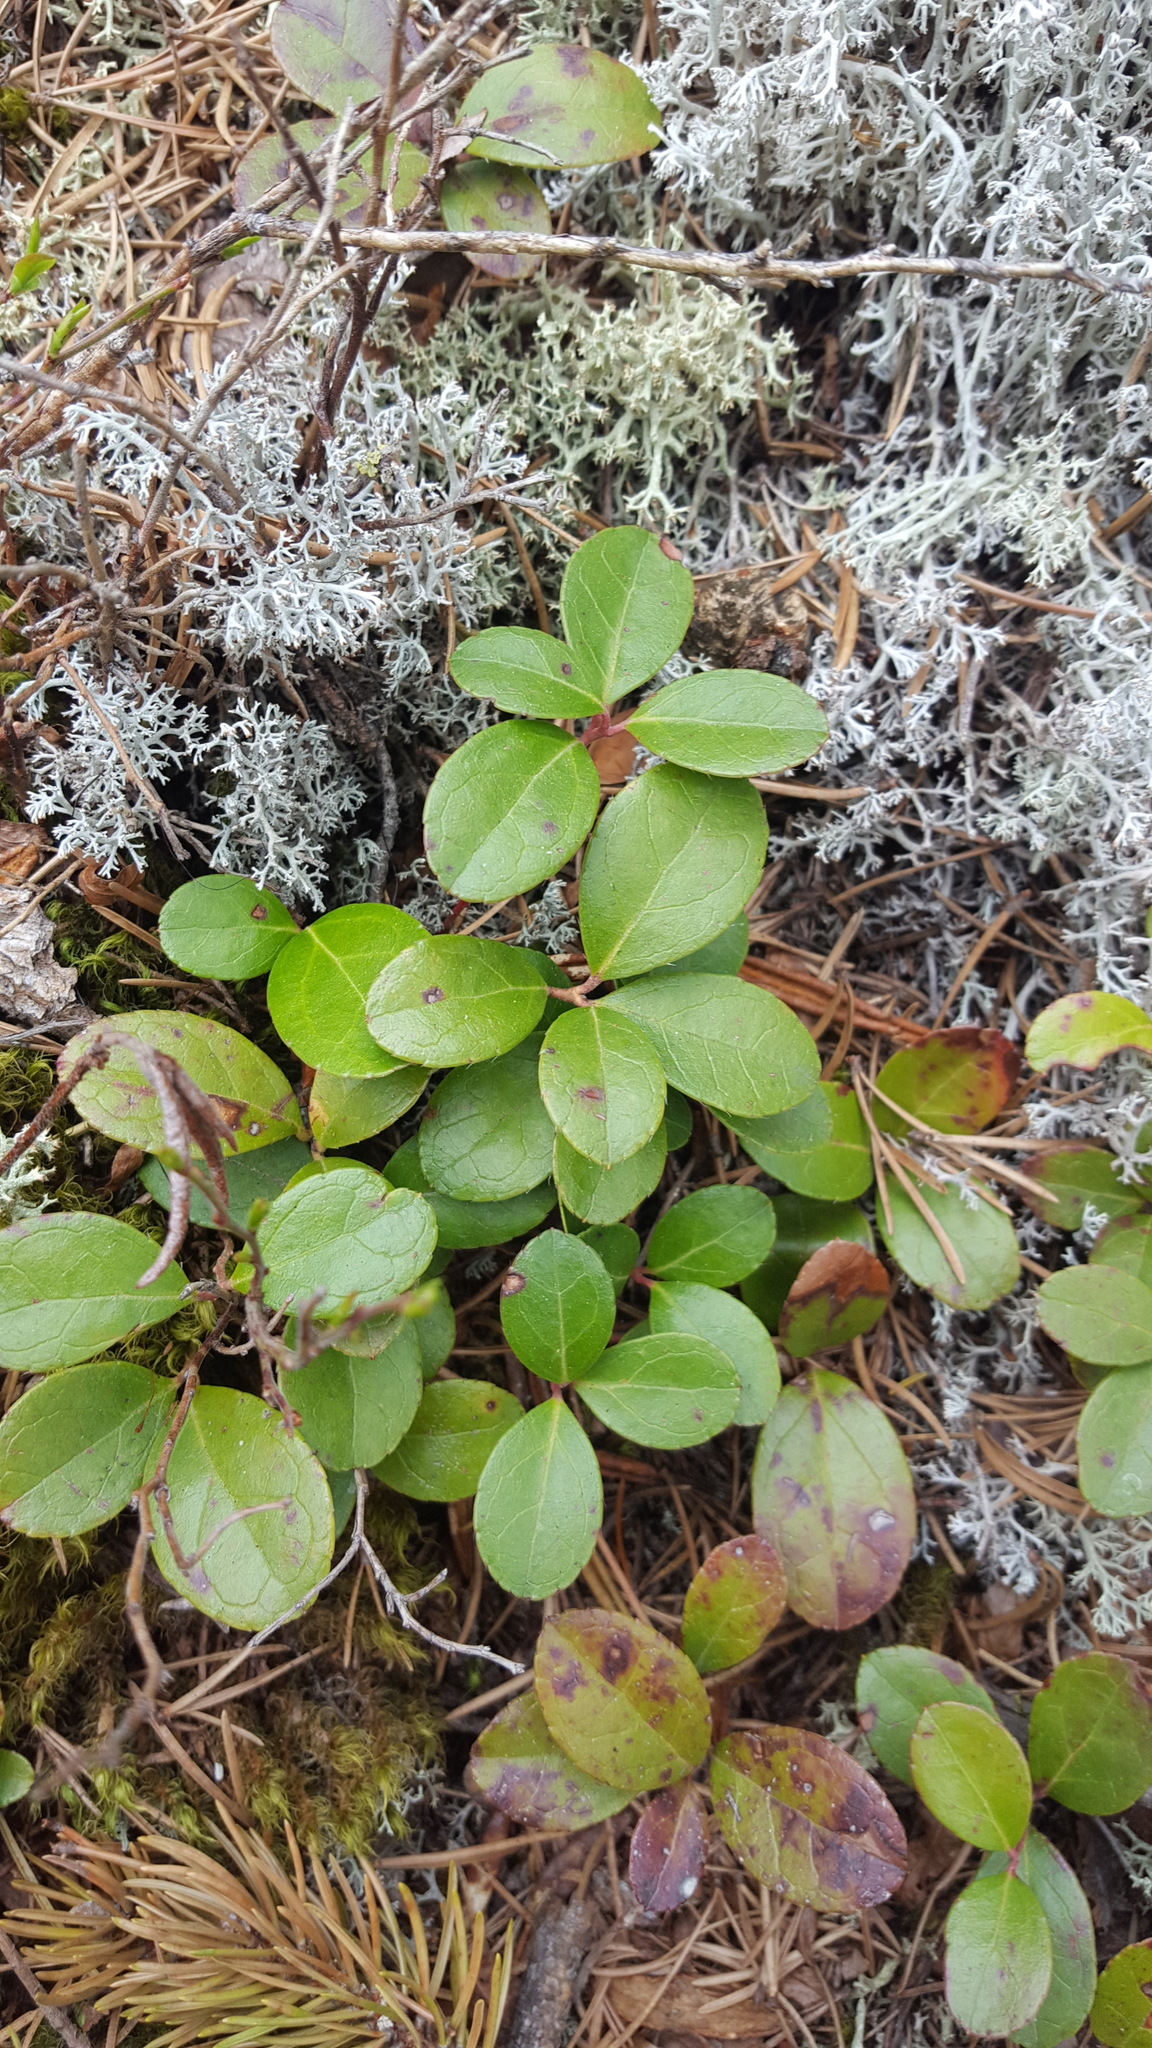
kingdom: Plantae
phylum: Tracheophyta
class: Magnoliopsida
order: Ericales
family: Ericaceae
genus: Gaultheria
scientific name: Gaultheria procumbens
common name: Checkerberry
